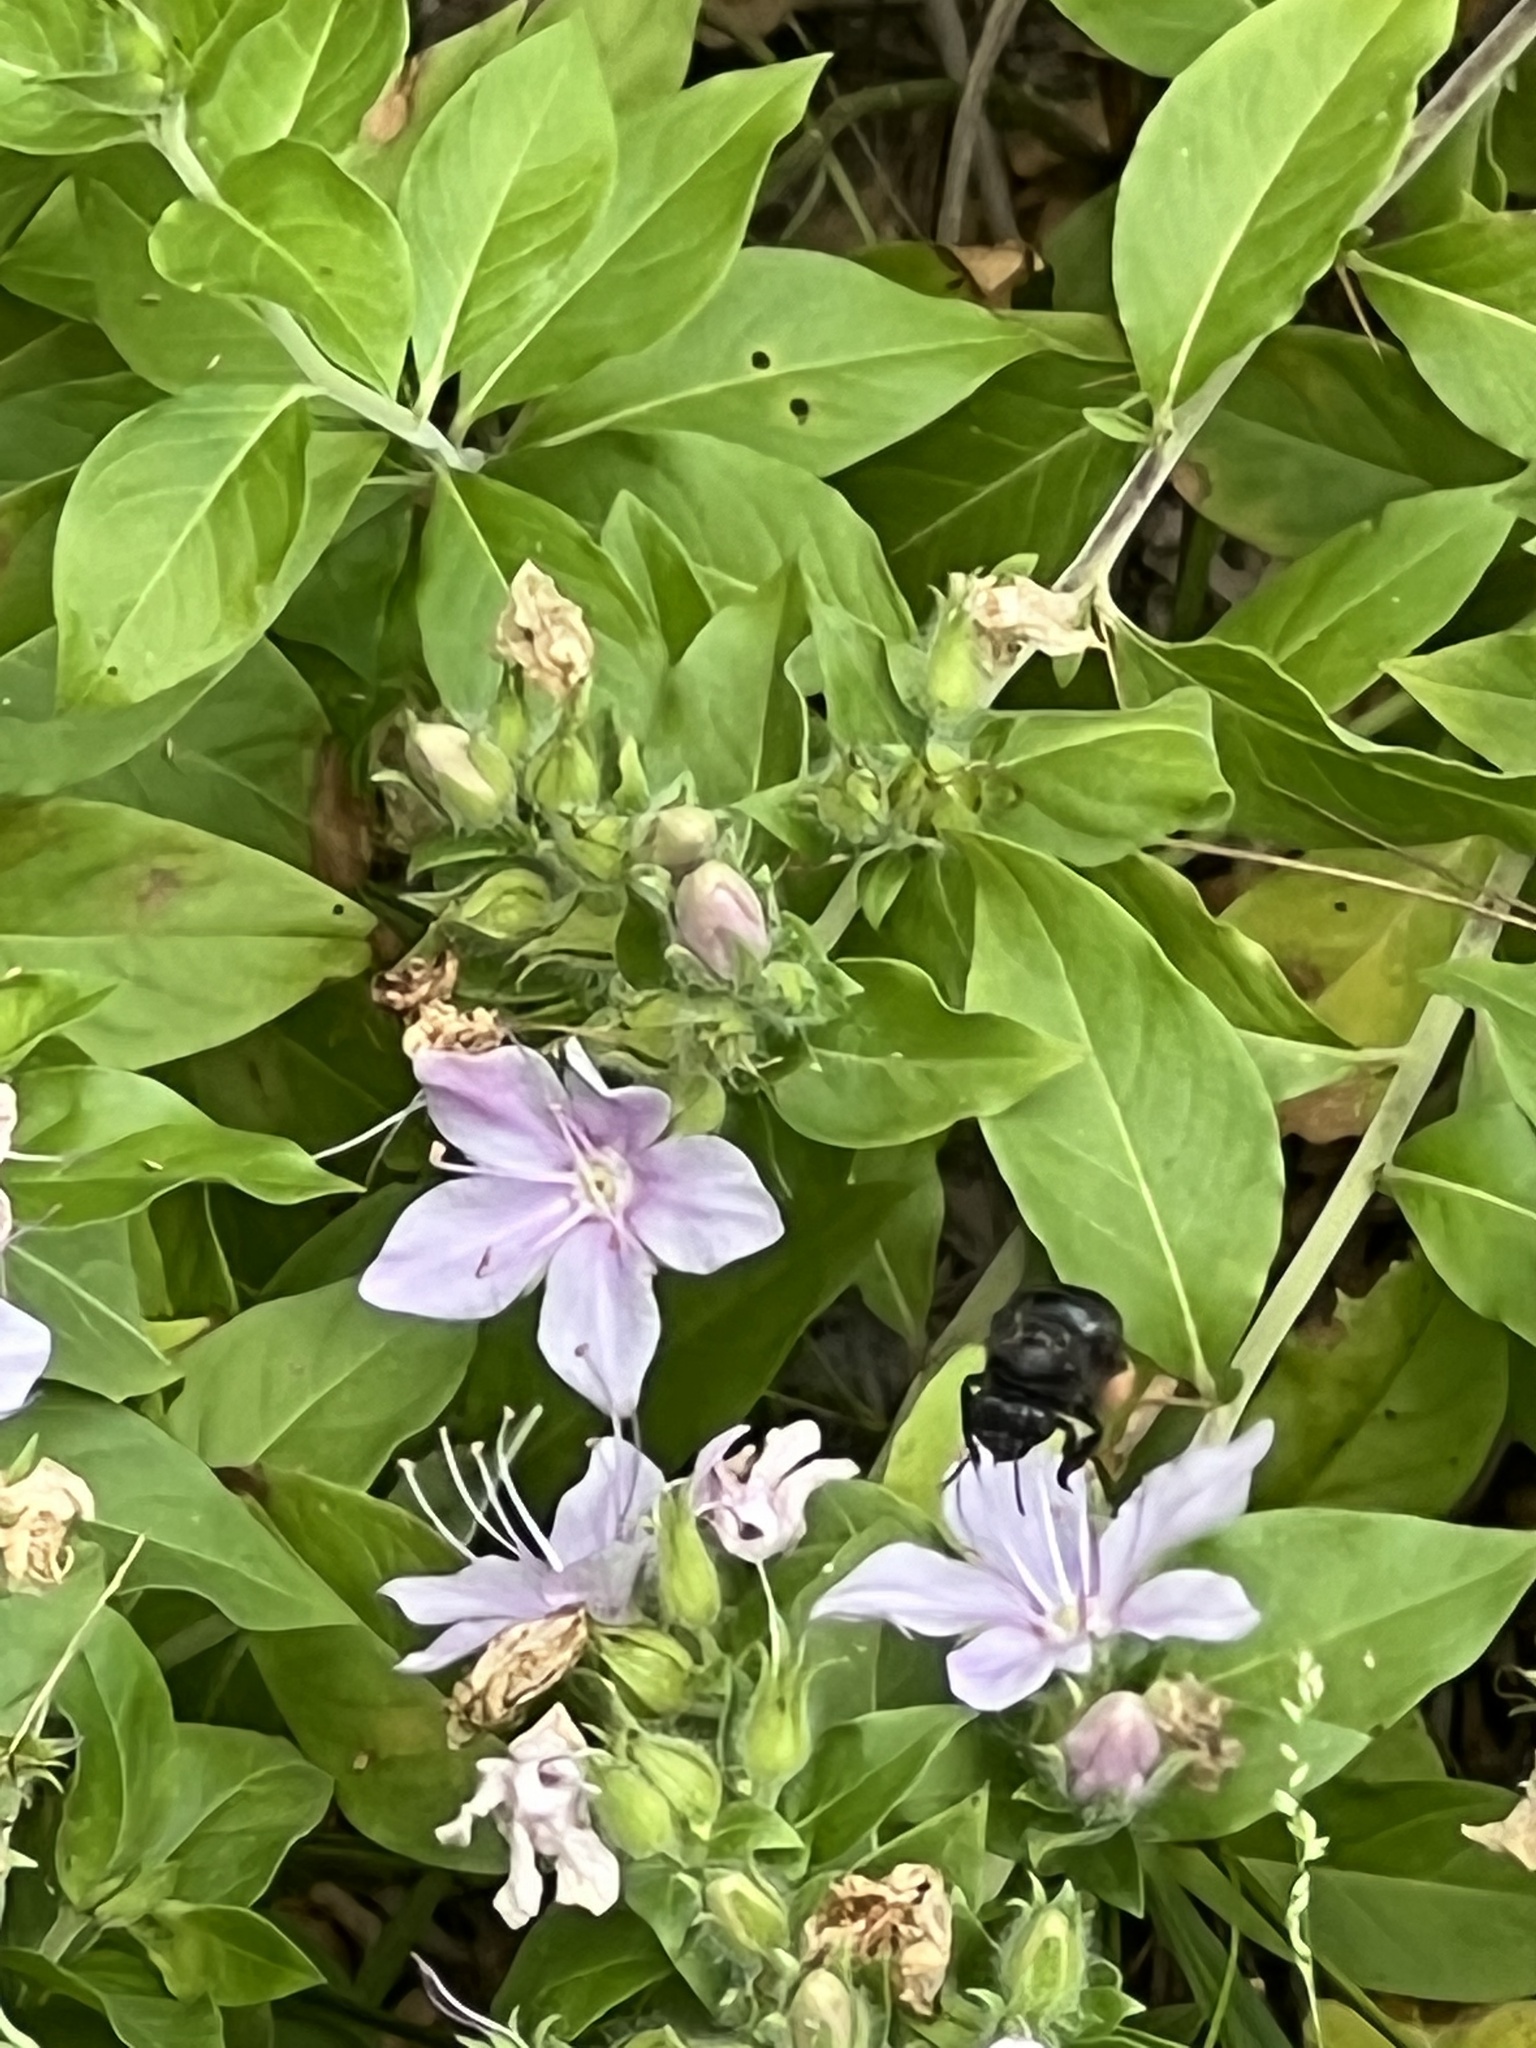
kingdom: Animalia
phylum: Arthropoda
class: Insecta
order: Hymenoptera
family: Apidae
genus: Melissodes
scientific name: Melissodes bimaculatus
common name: Two-spotted long-horned bee
